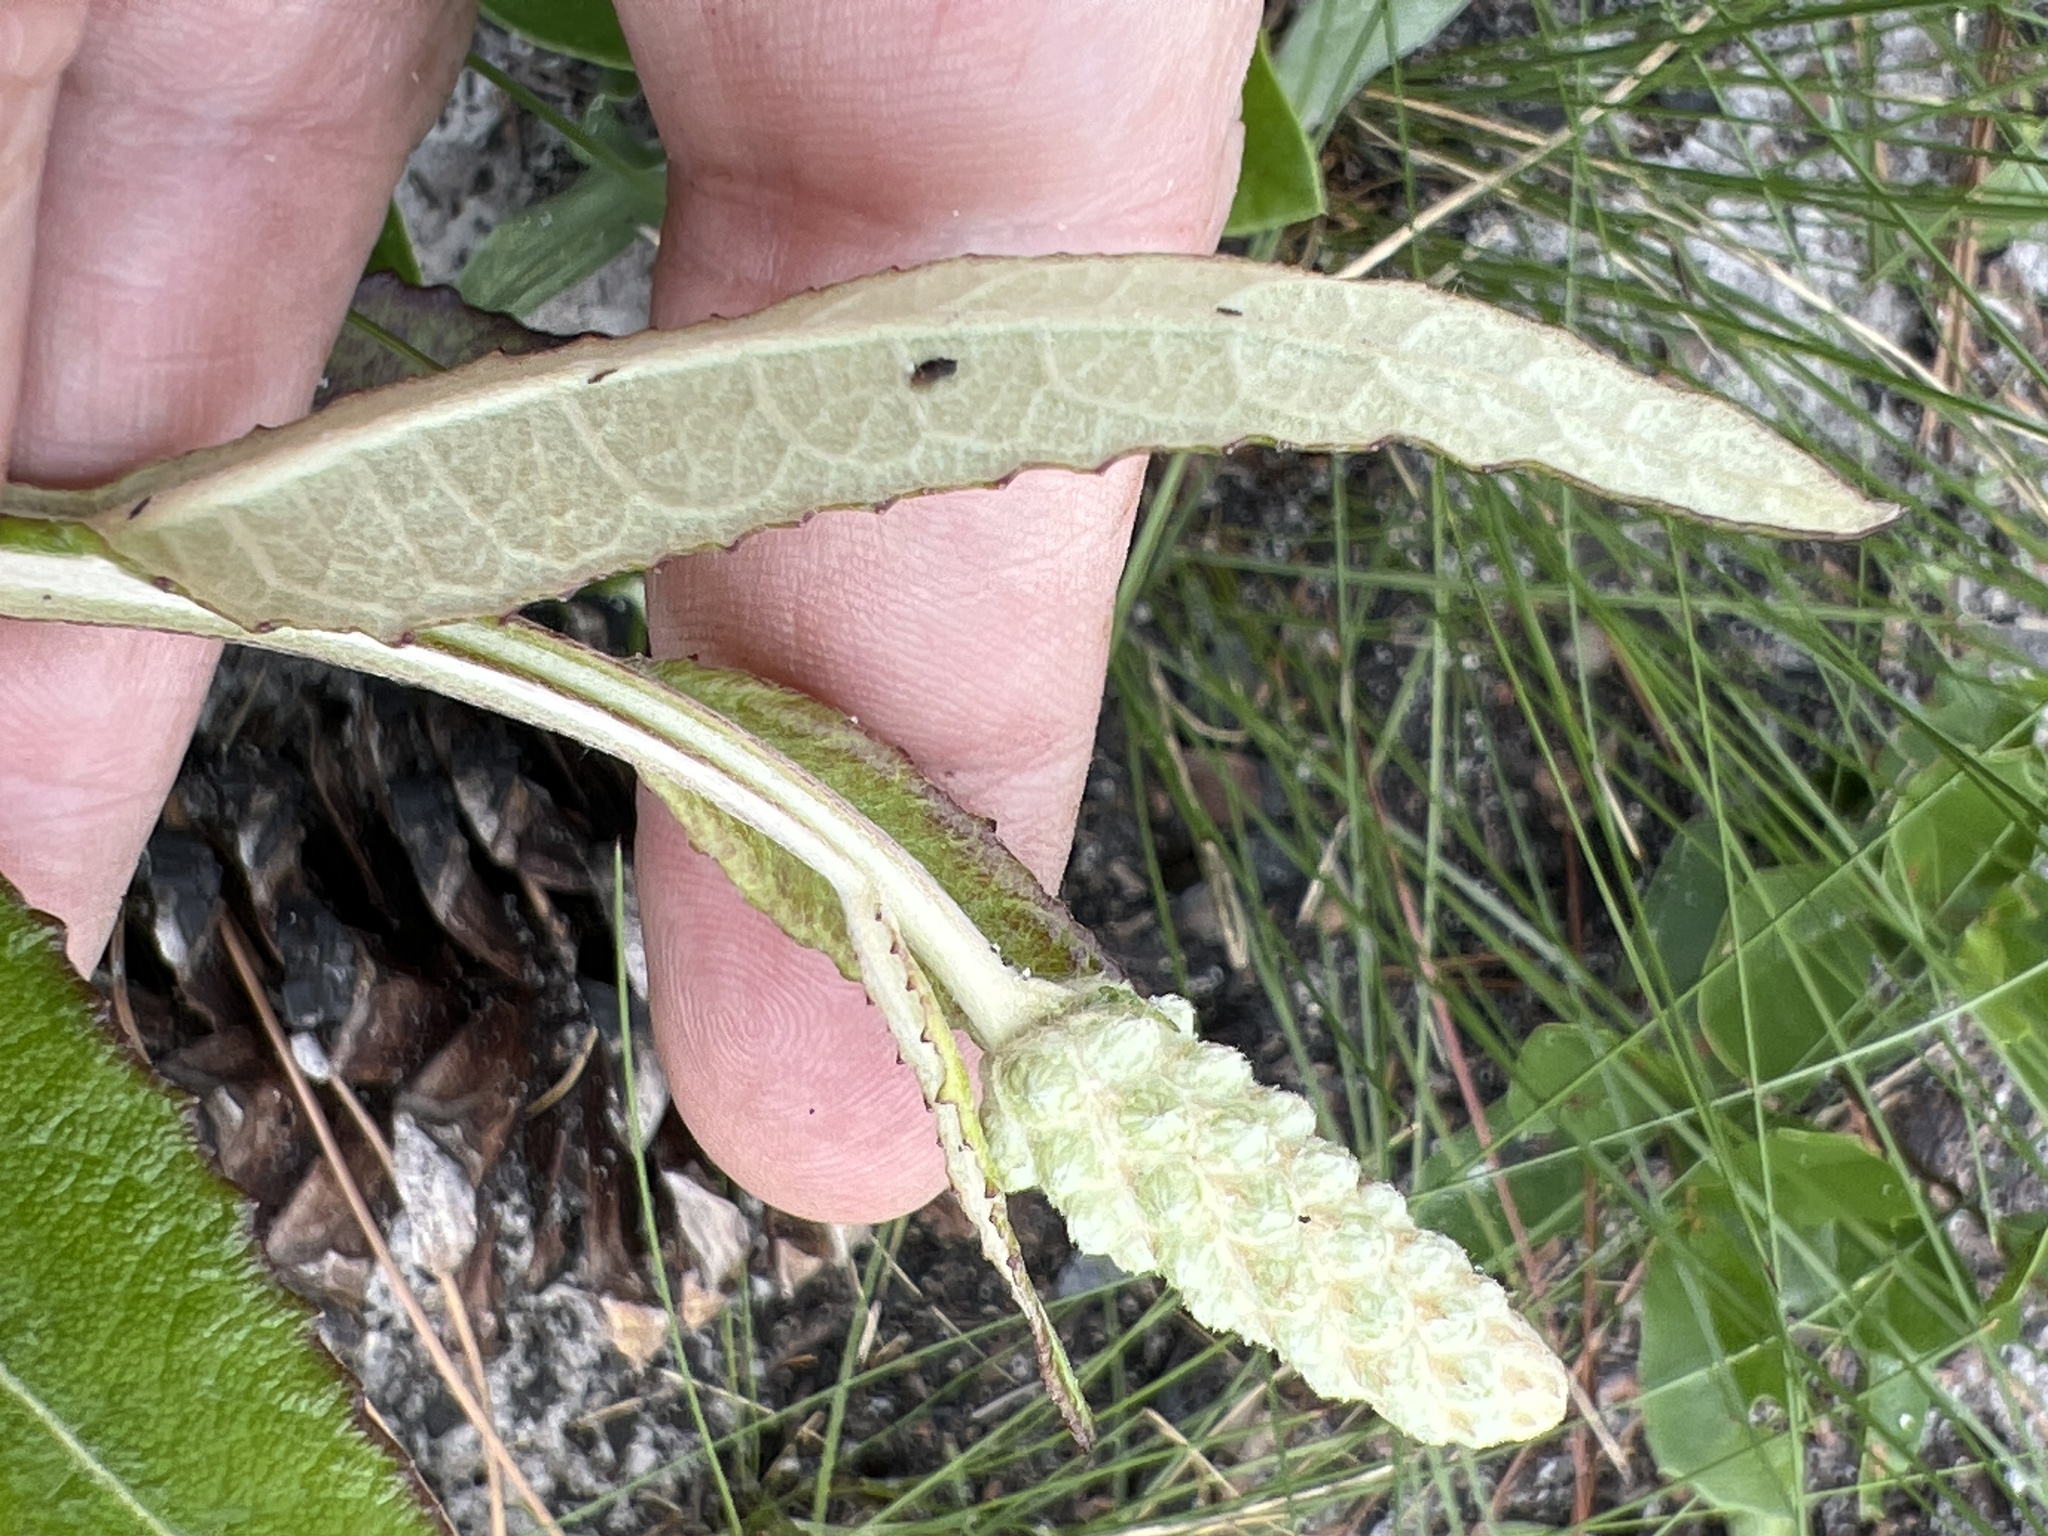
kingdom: Plantae
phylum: Tracheophyta
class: Magnoliopsida
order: Asterales
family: Asteraceae
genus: Pterocaulon
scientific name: Pterocaulon pycnostachyum
